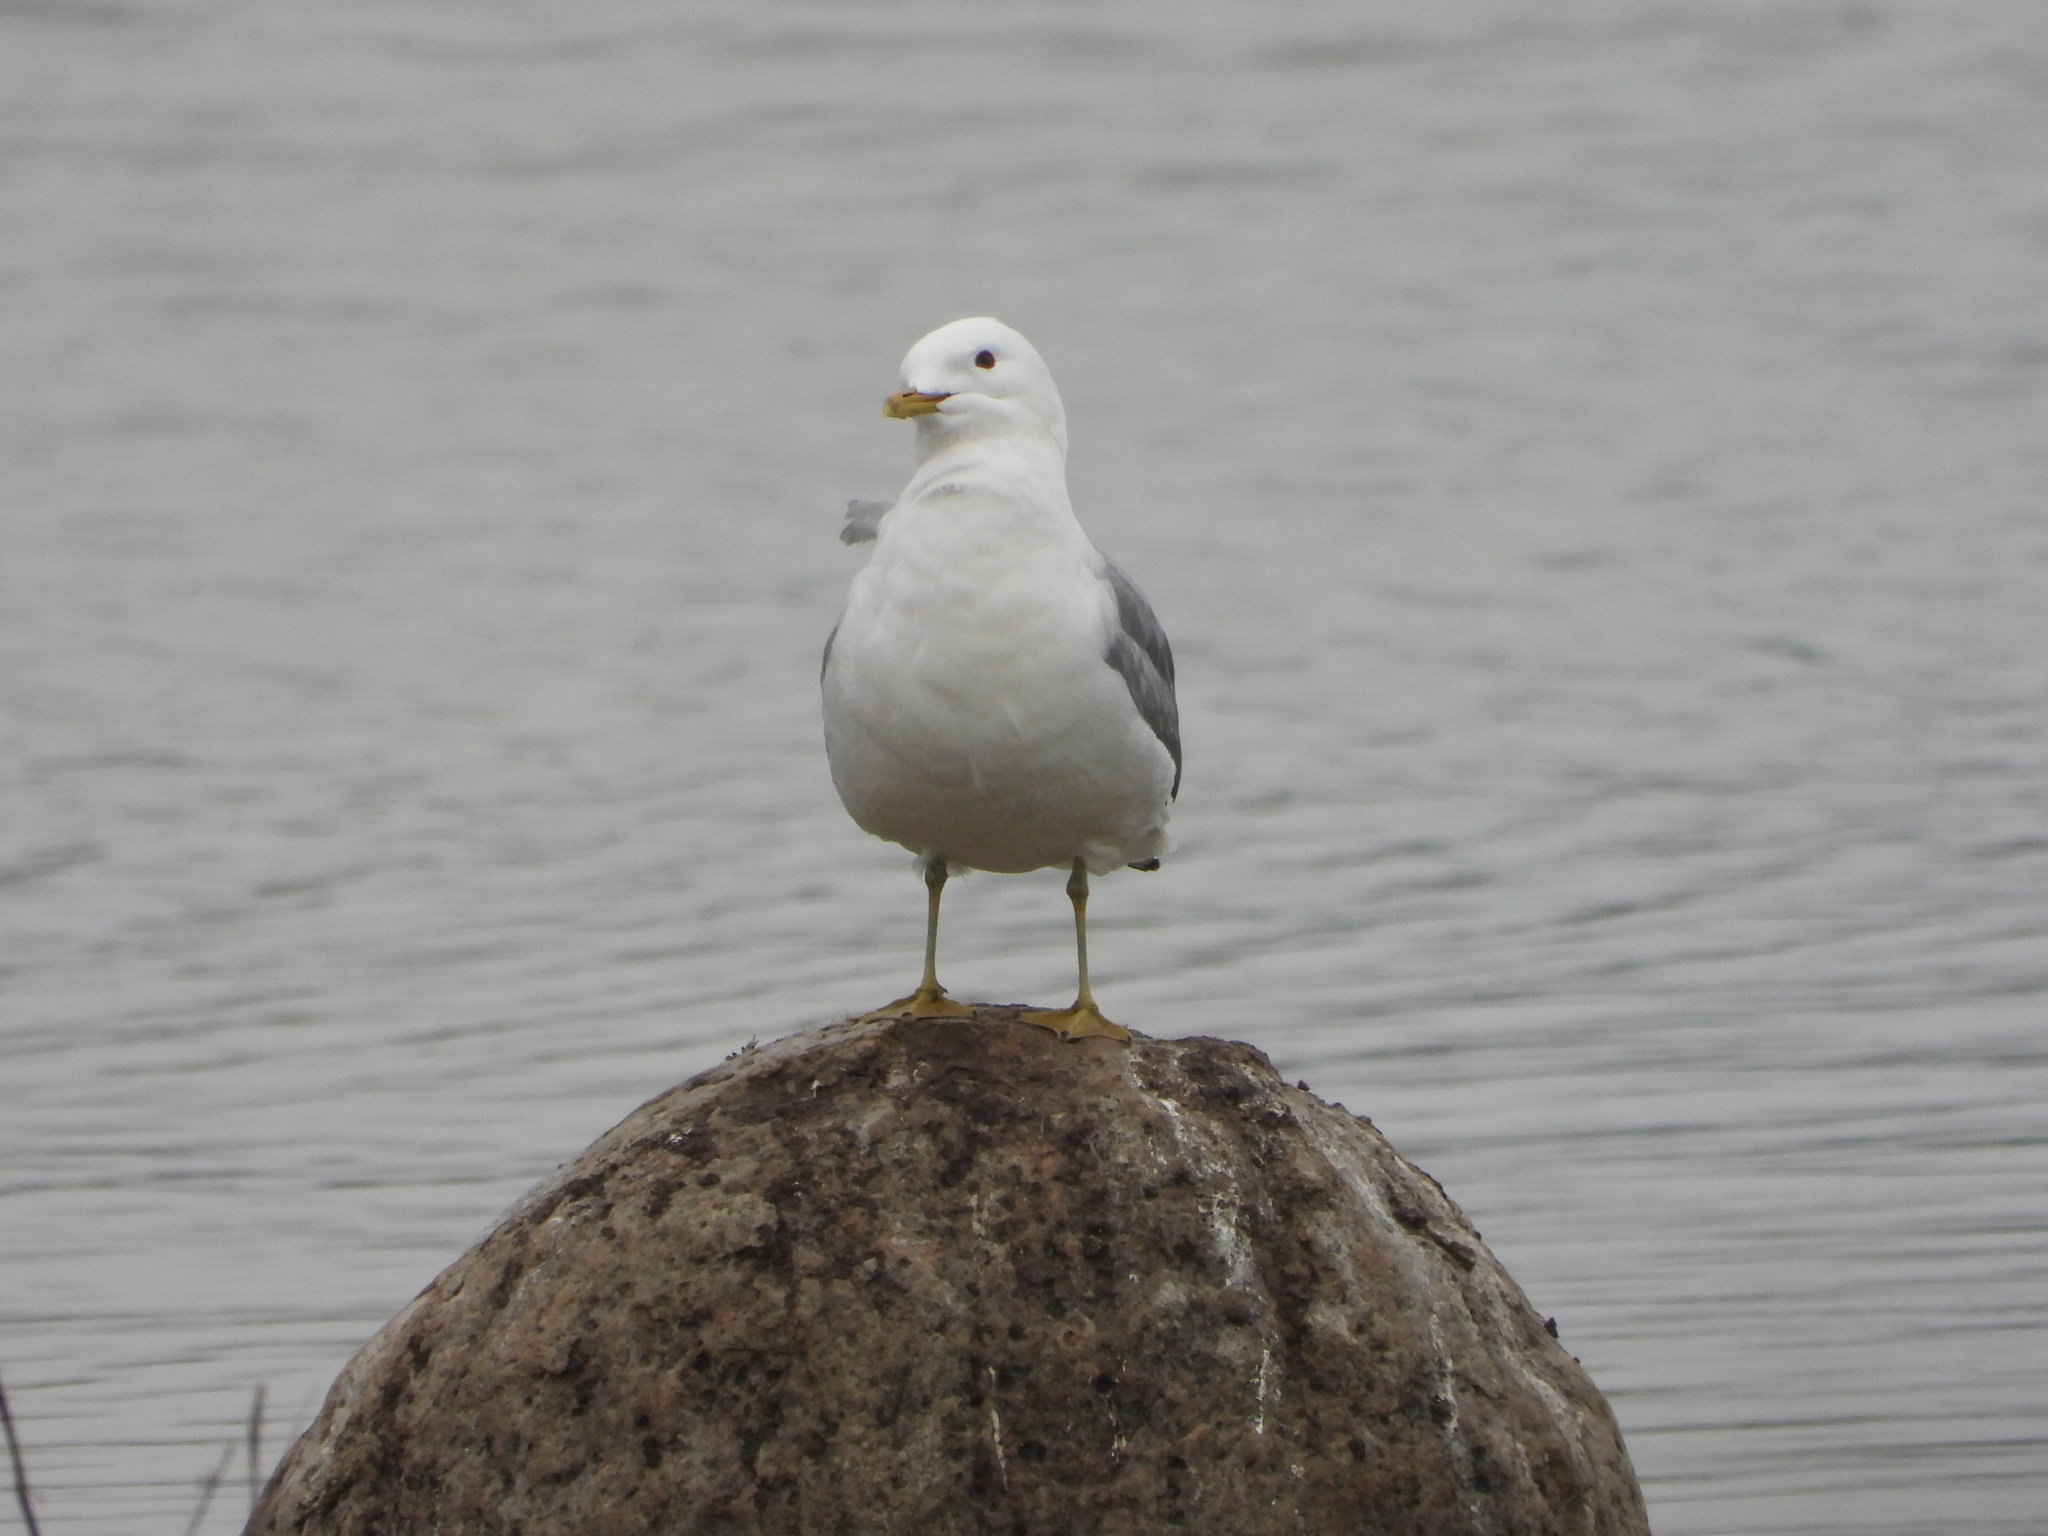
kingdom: Animalia
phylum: Chordata
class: Aves
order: Charadriiformes
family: Laridae
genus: Larus
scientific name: Larus canus
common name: Mew gull
